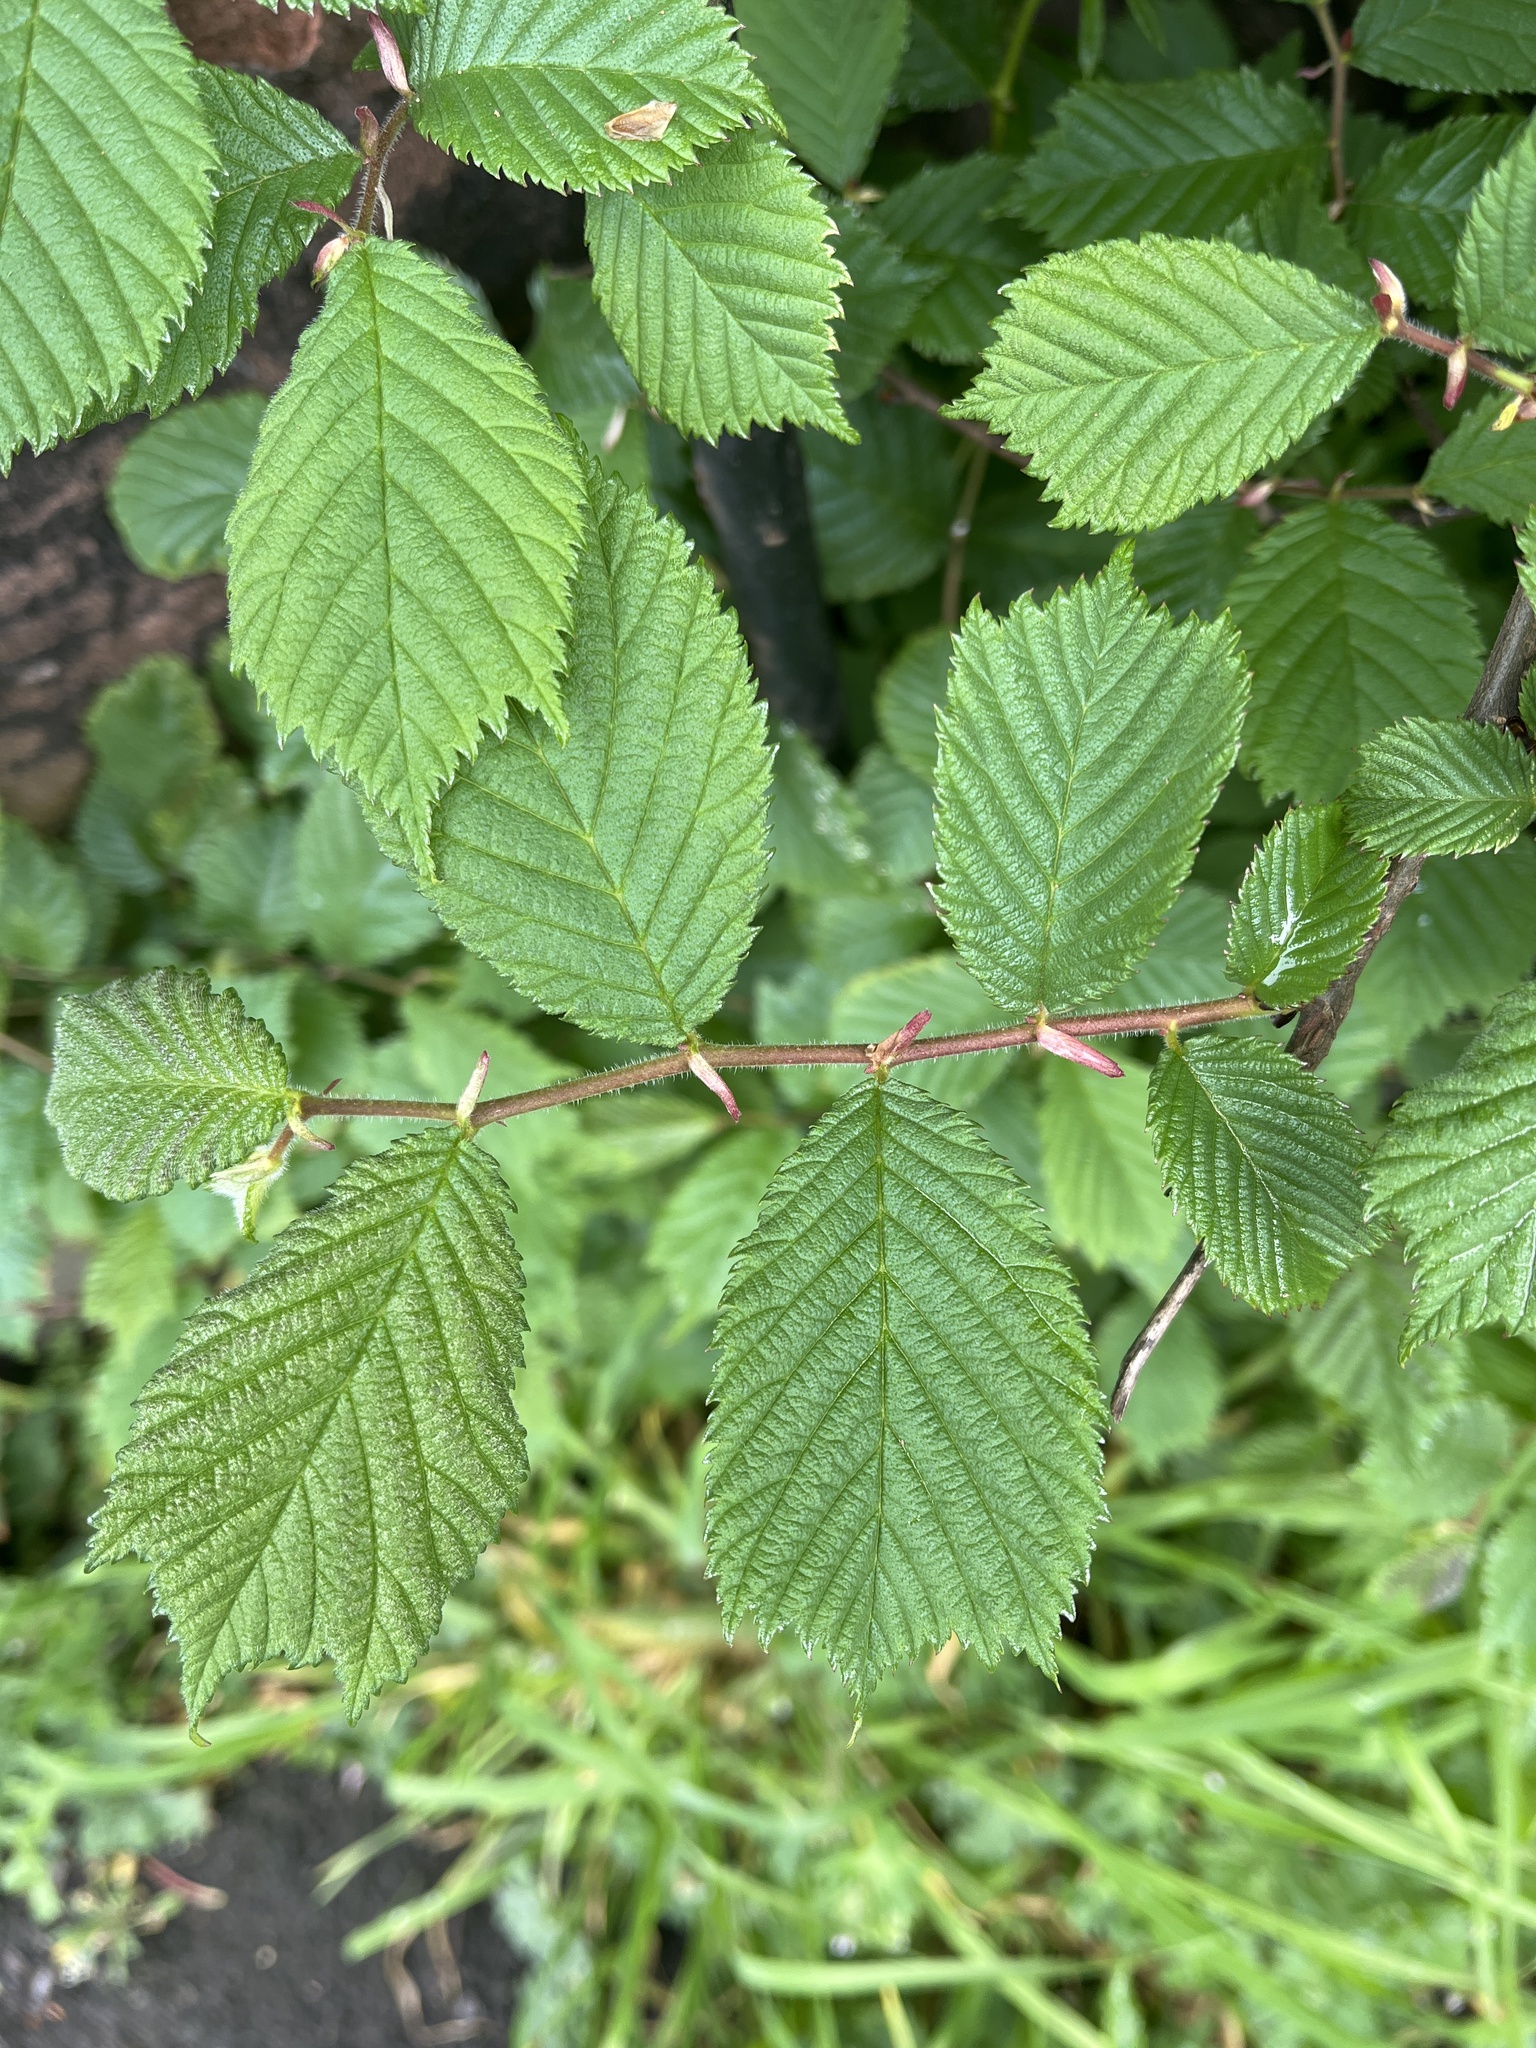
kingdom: Plantae
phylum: Tracheophyta
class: Magnoliopsida
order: Rosales
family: Ulmaceae
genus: Ulmus
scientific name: Ulmus glabra
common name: Wych elm
